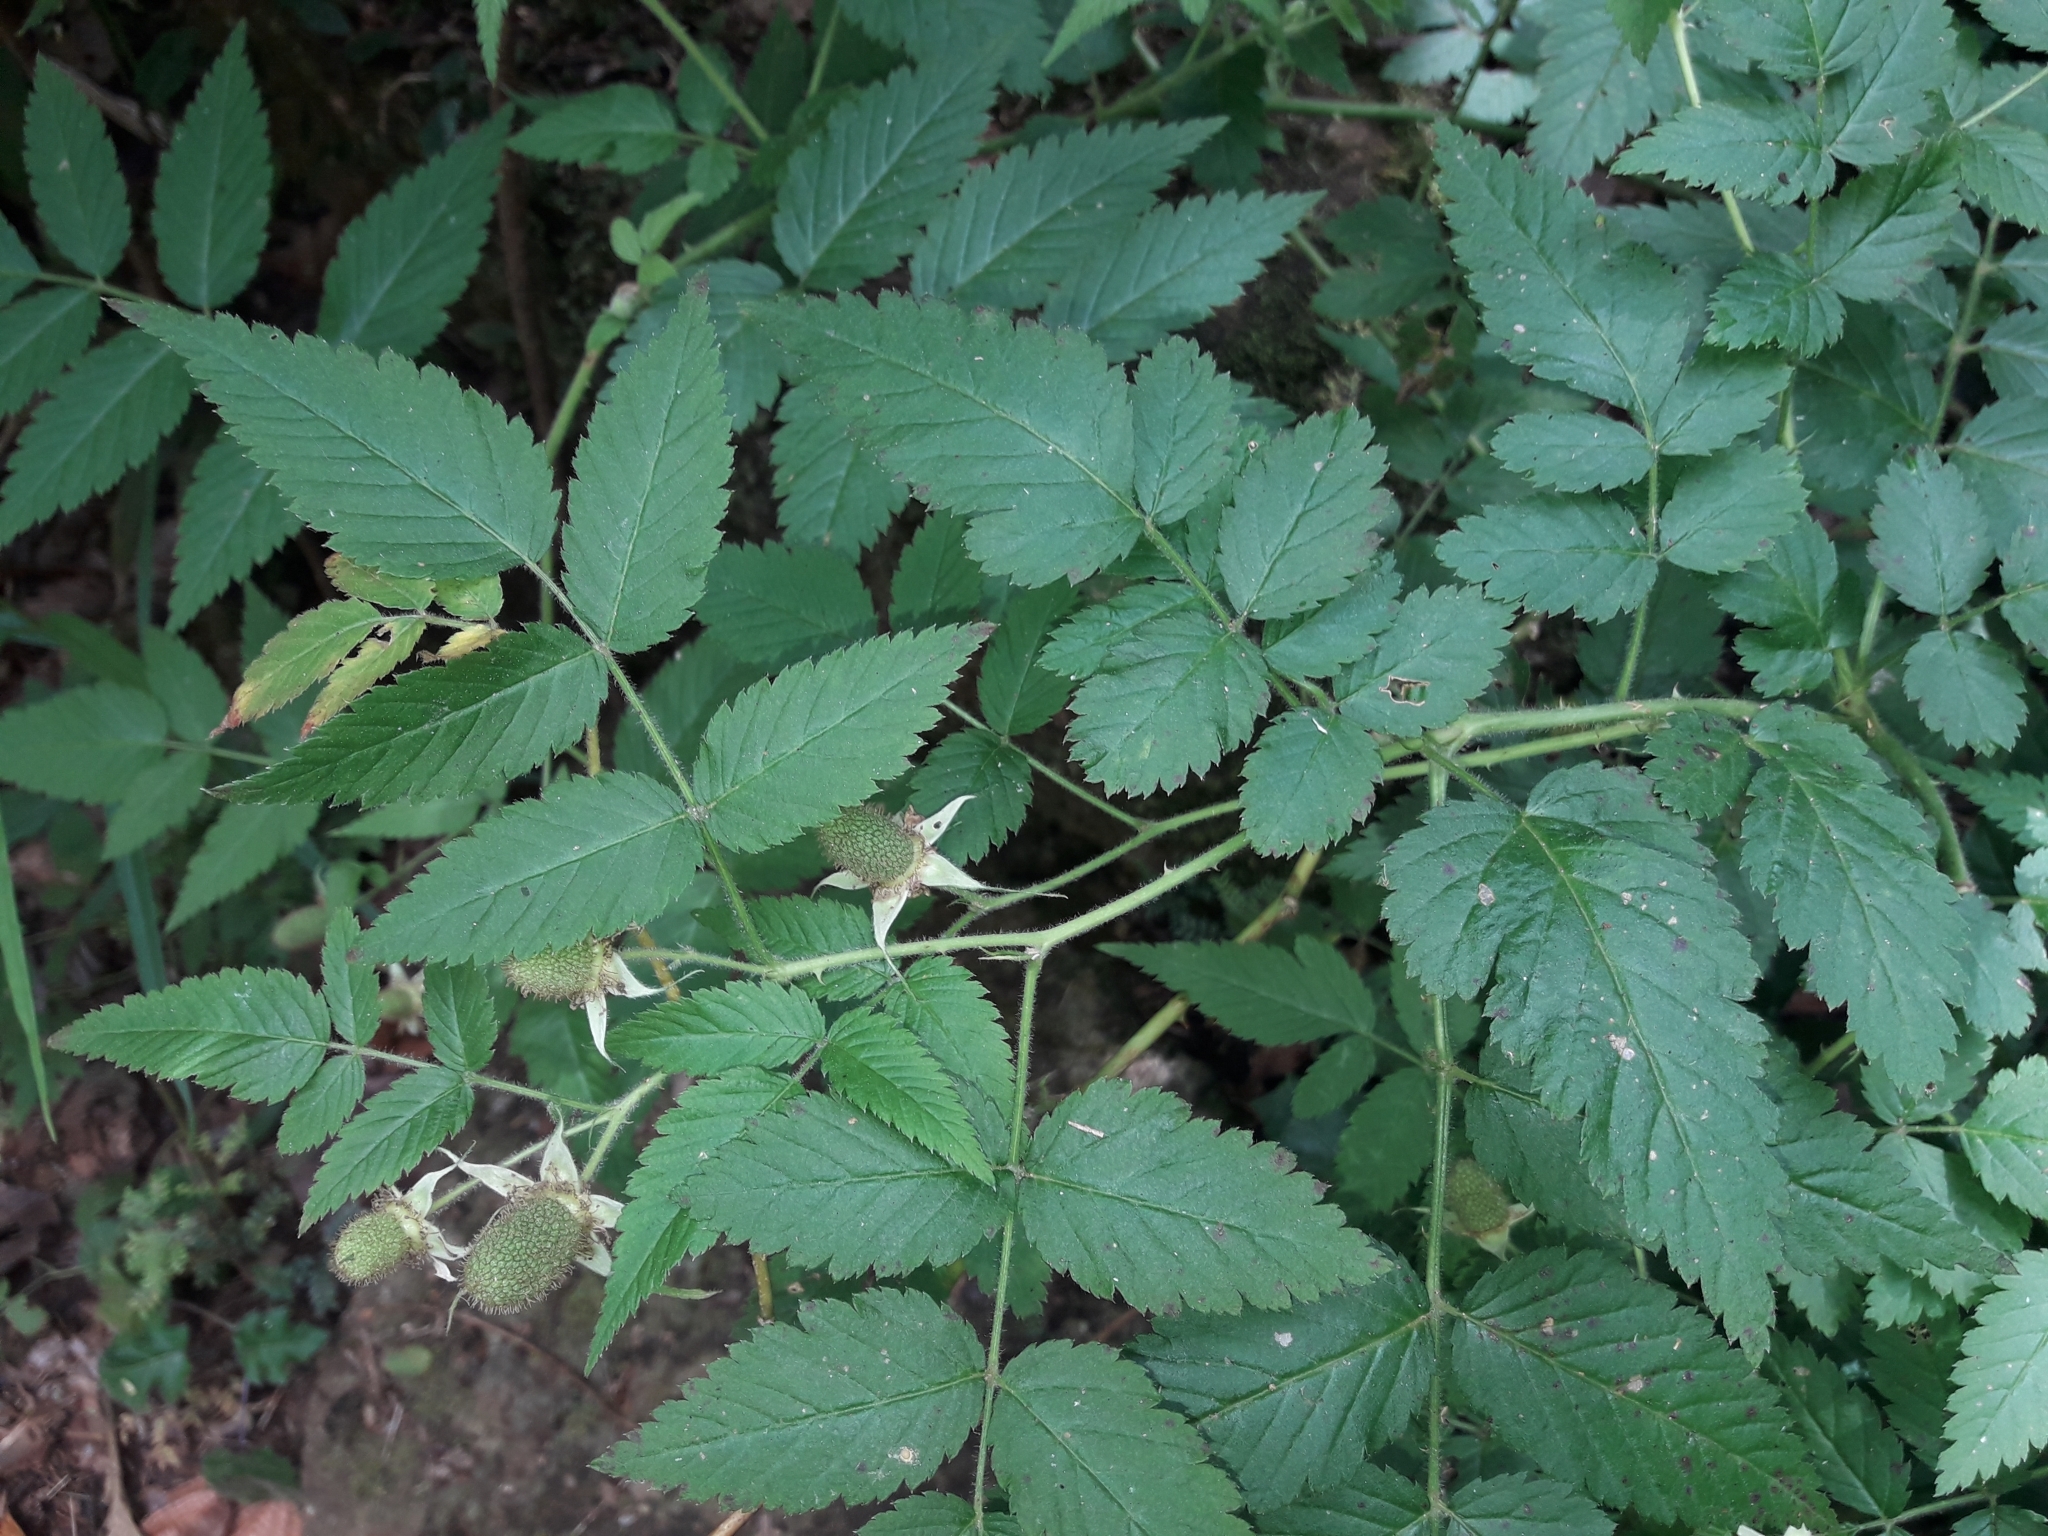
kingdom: Plantae
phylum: Tracheophyta
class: Magnoliopsida
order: Rosales
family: Rosaceae
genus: Rubus
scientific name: Rubus rosifolius
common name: Roseleaf raspberry
